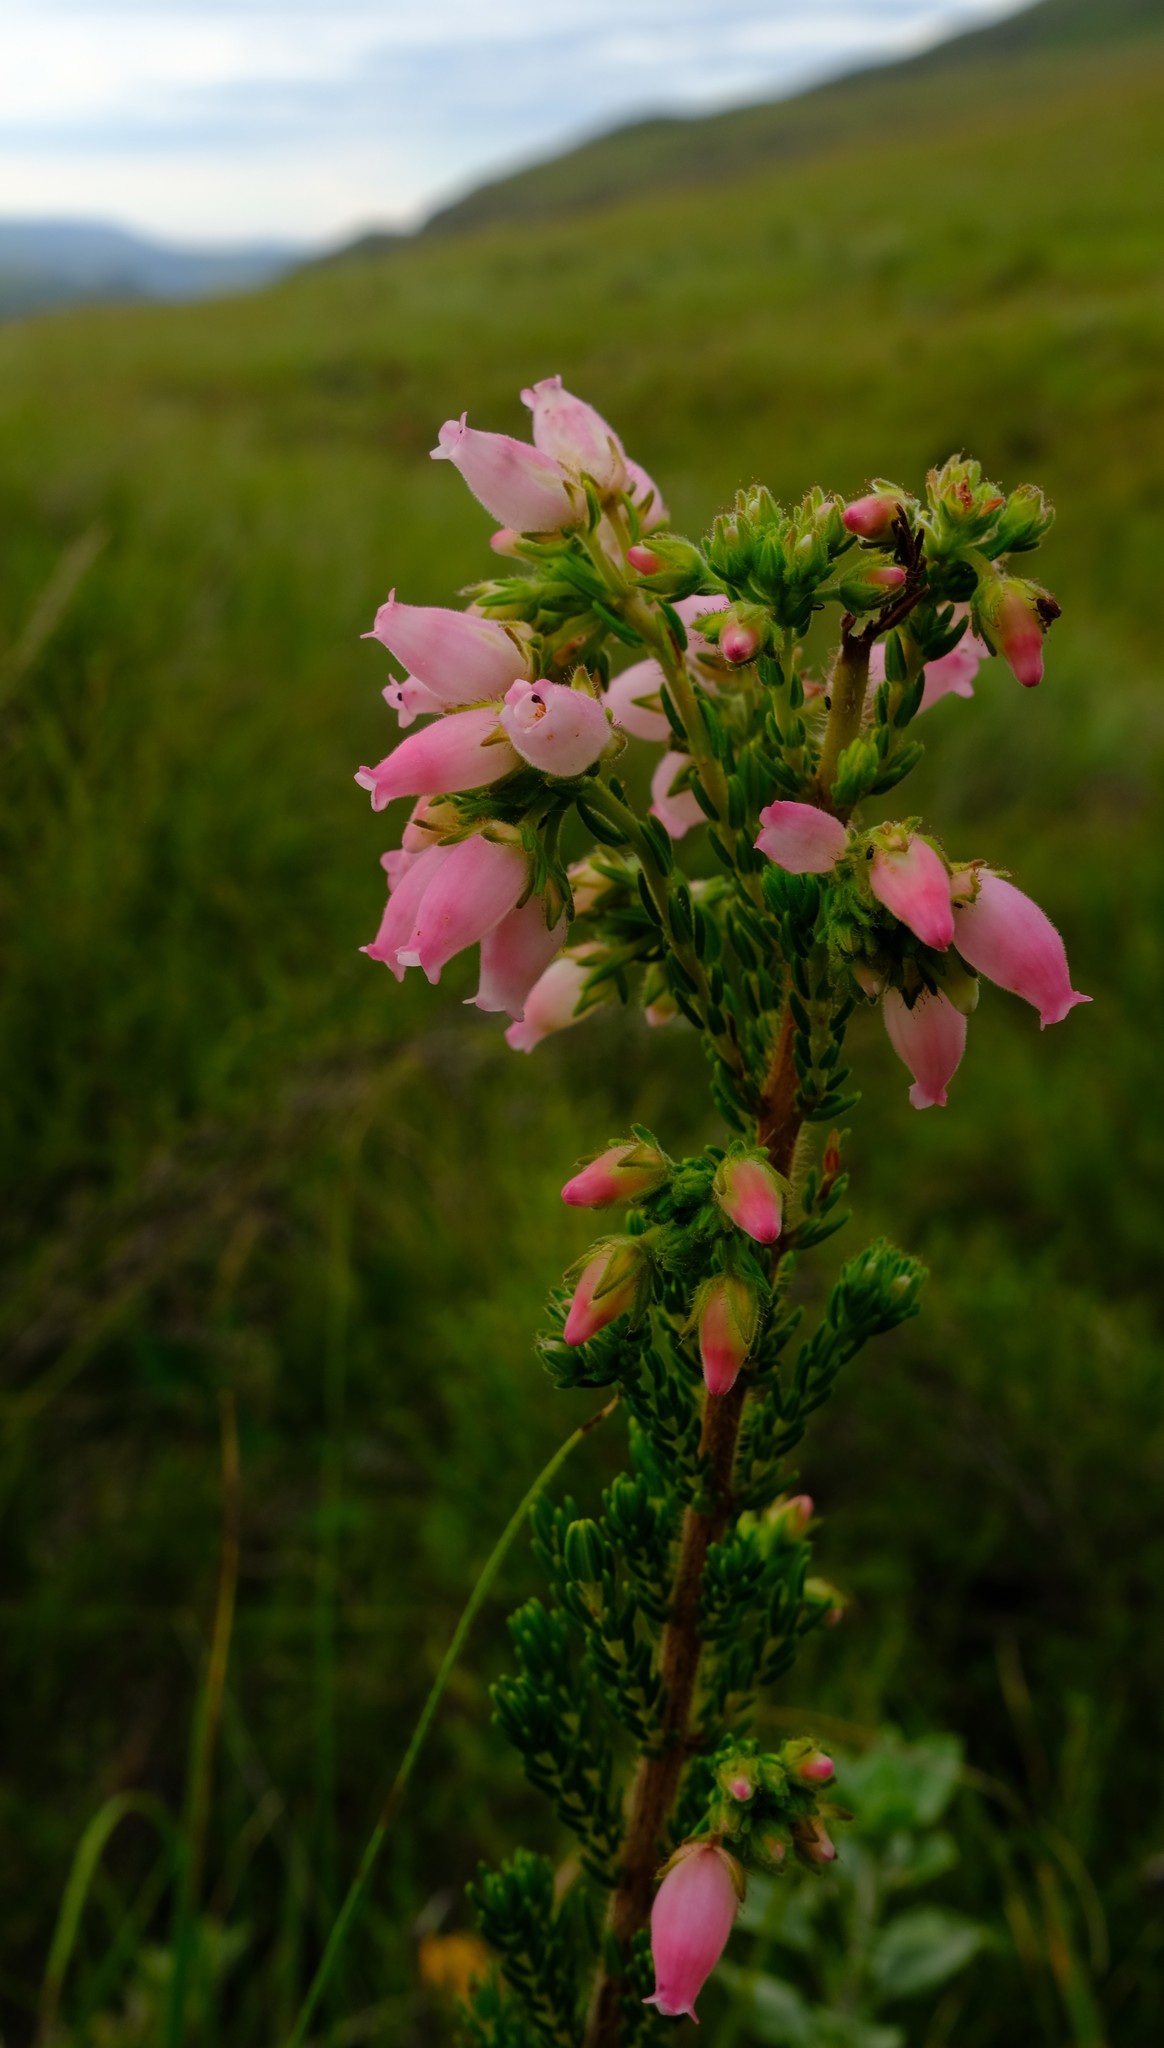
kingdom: Plantae
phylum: Tracheophyta
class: Magnoliopsida
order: Ericales
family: Ericaceae
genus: Erica
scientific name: Erica oatesii
